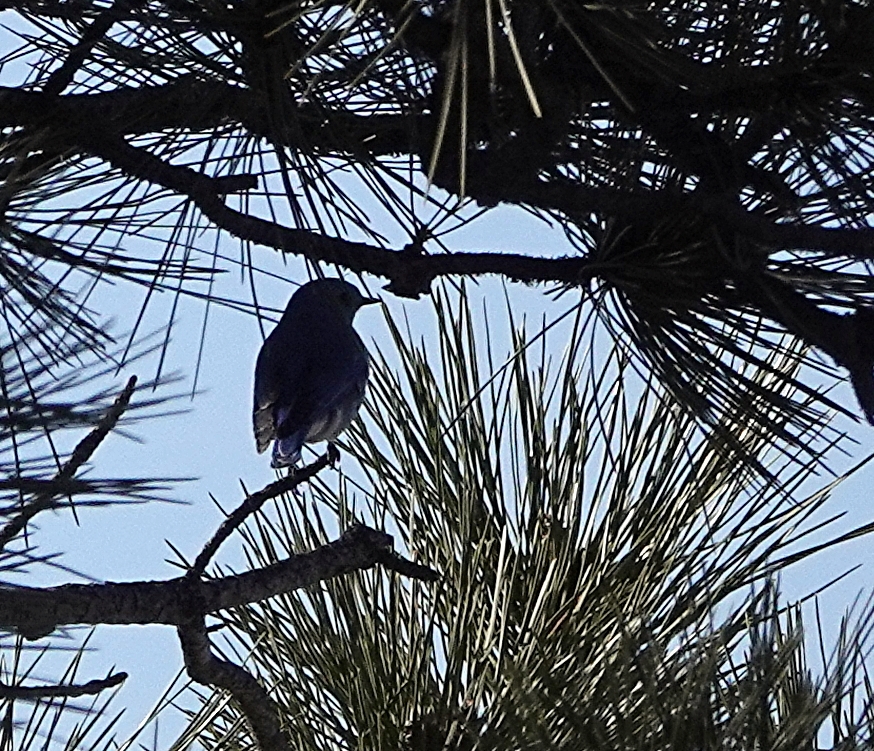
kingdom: Animalia
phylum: Chordata
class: Aves
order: Passeriformes
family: Turdidae
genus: Sialia
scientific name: Sialia currucoides
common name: Mountain bluebird
